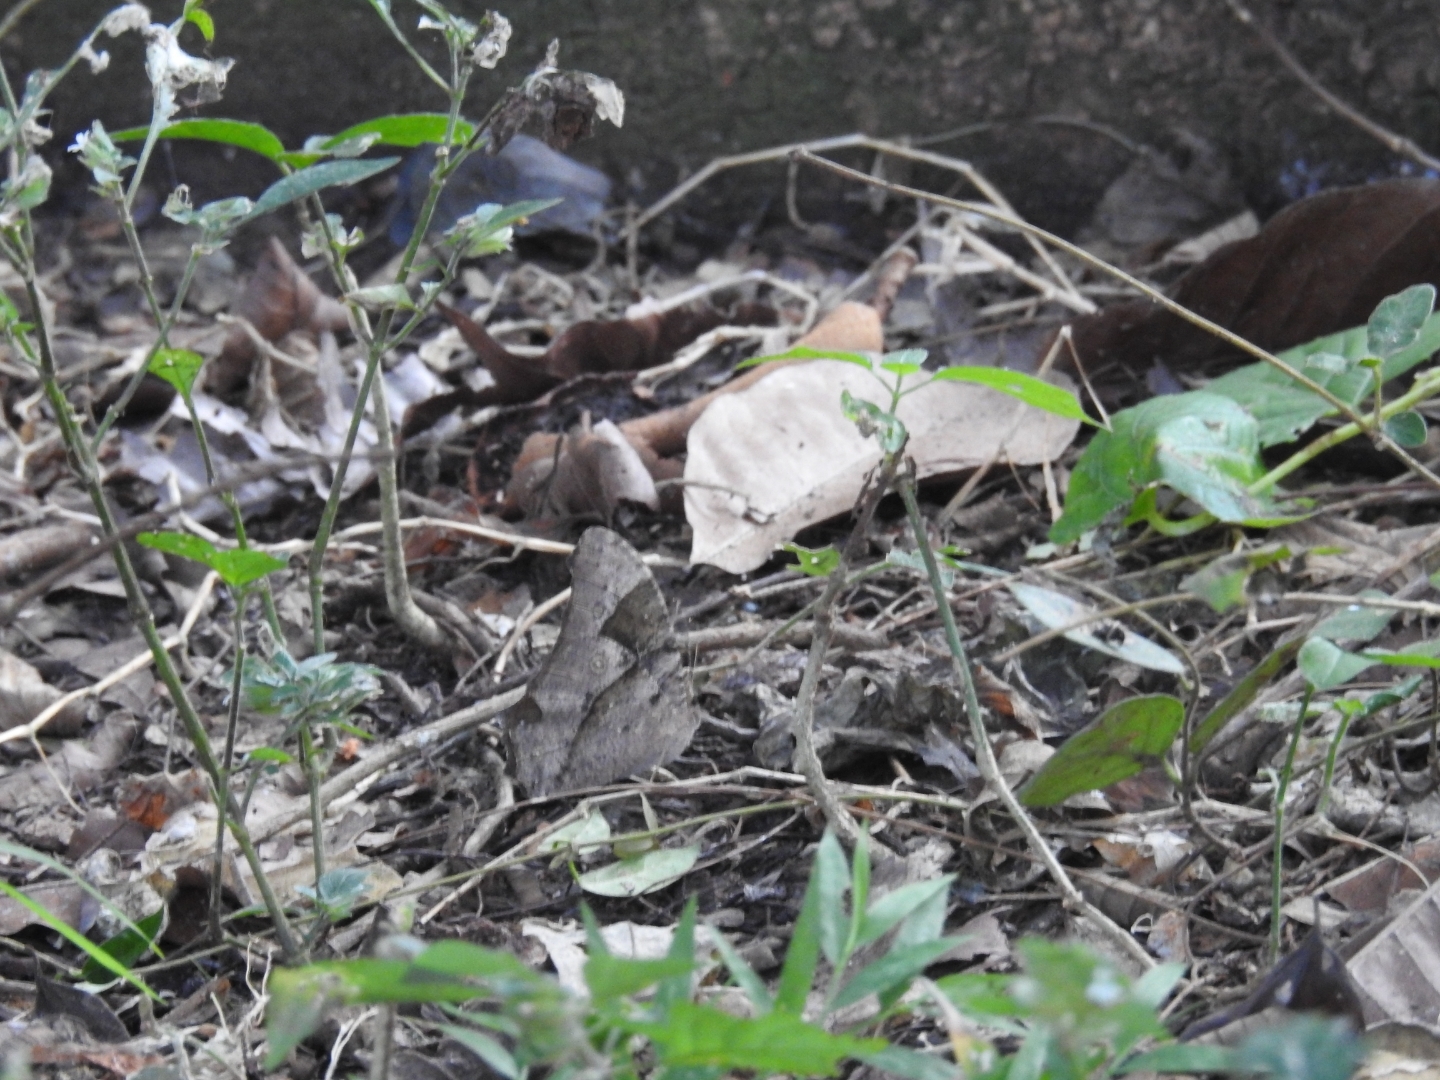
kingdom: Animalia
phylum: Arthropoda
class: Insecta
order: Lepidoptera
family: Nymphalidae
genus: Melanitis
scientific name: Melanitis leda
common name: Twilight brown
